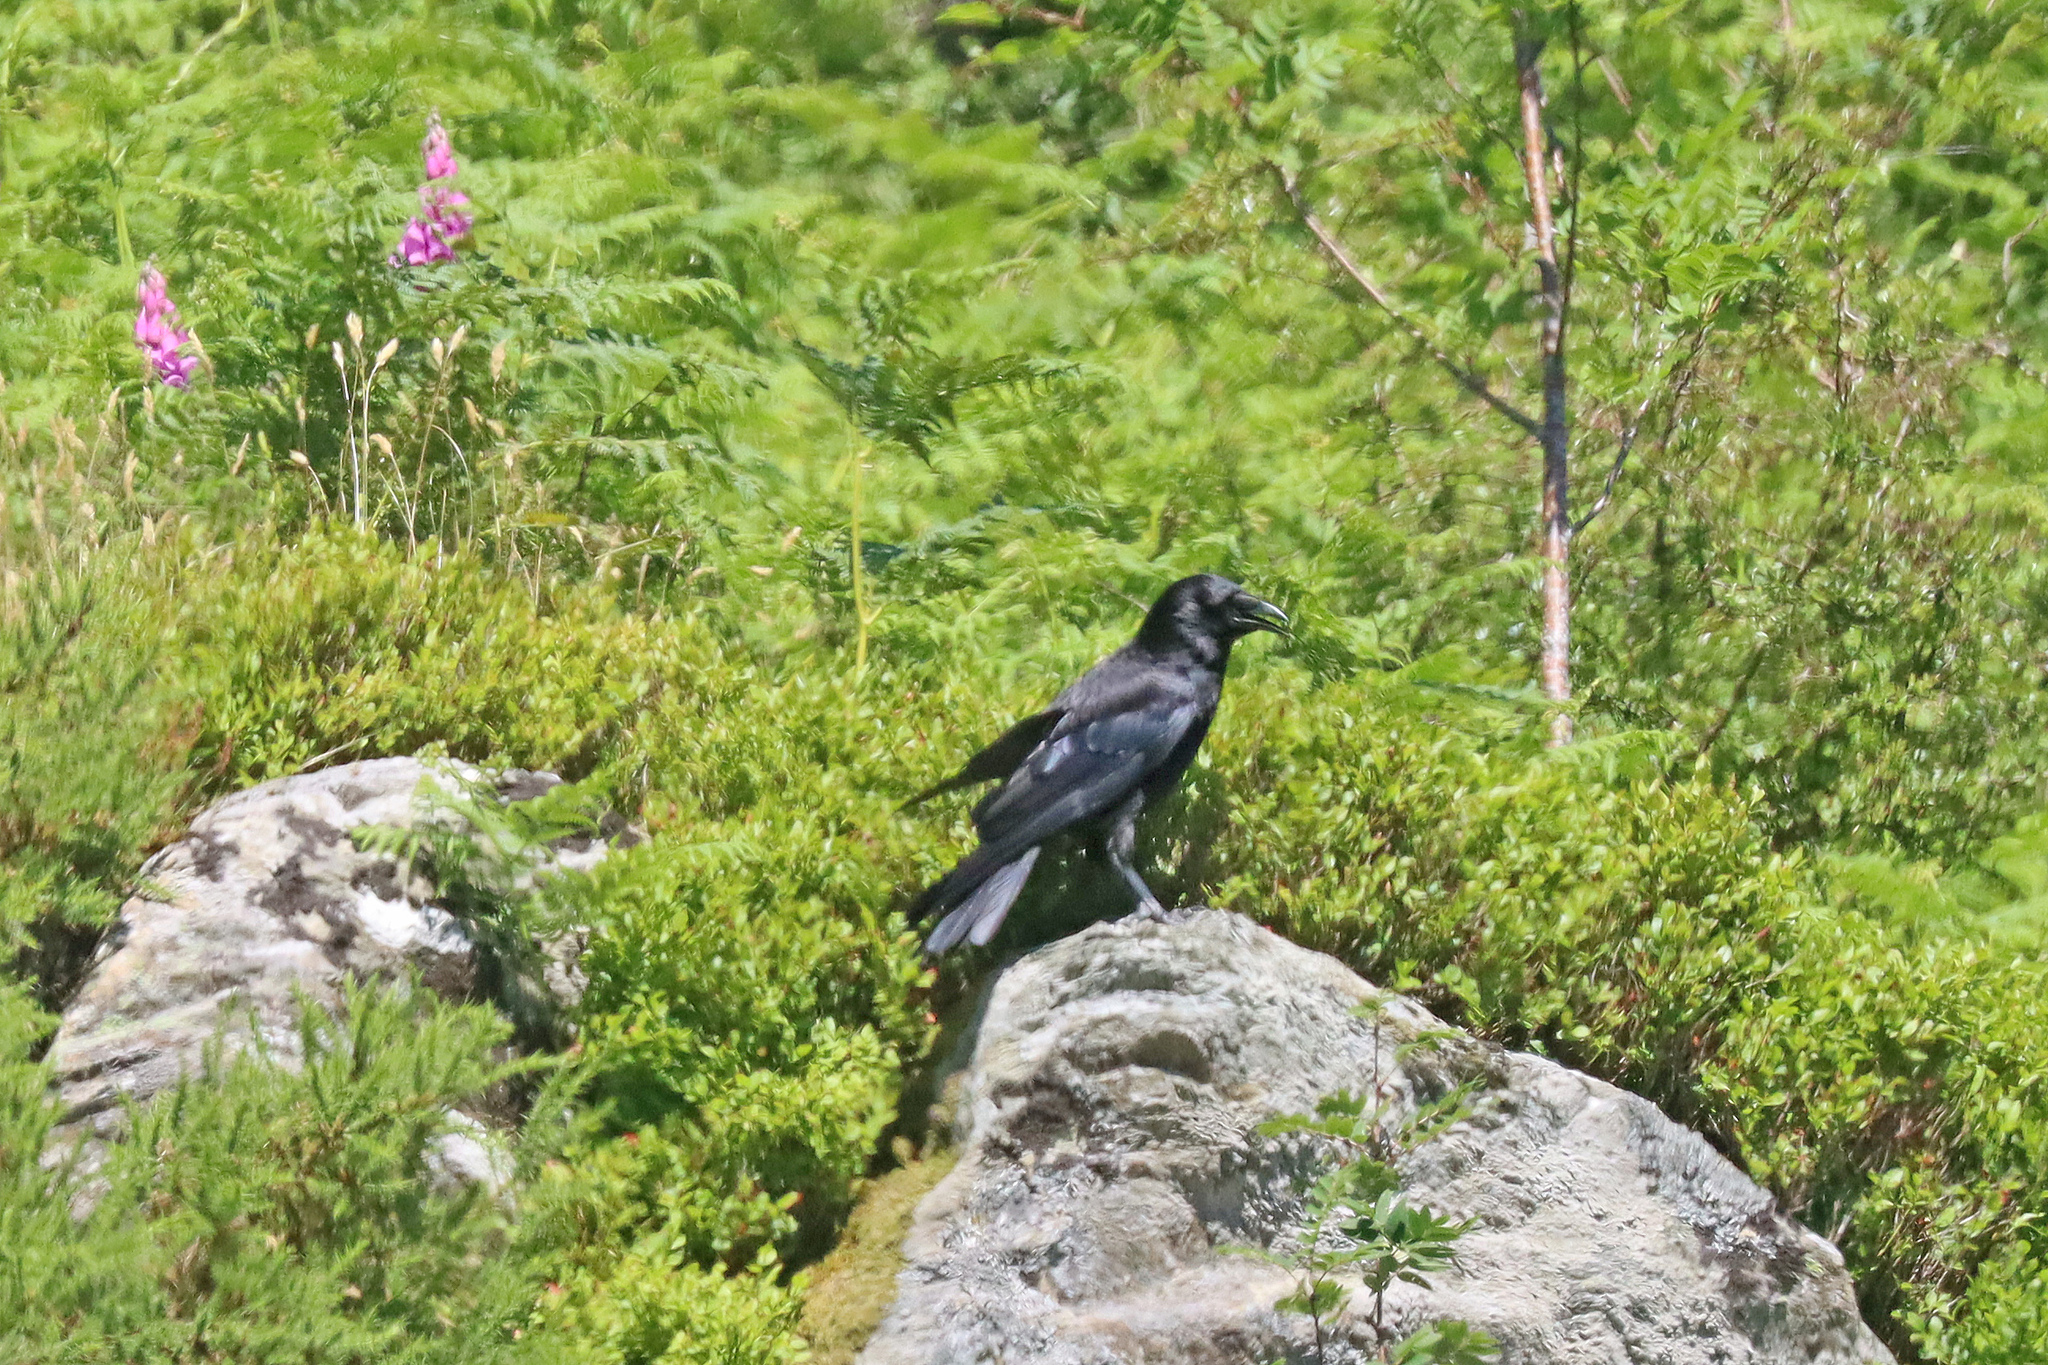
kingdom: Animalia
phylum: Chordata
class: Aves
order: Passeriformes
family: Corvidae
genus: Corvus
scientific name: Corvus corone
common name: Carrion crow
